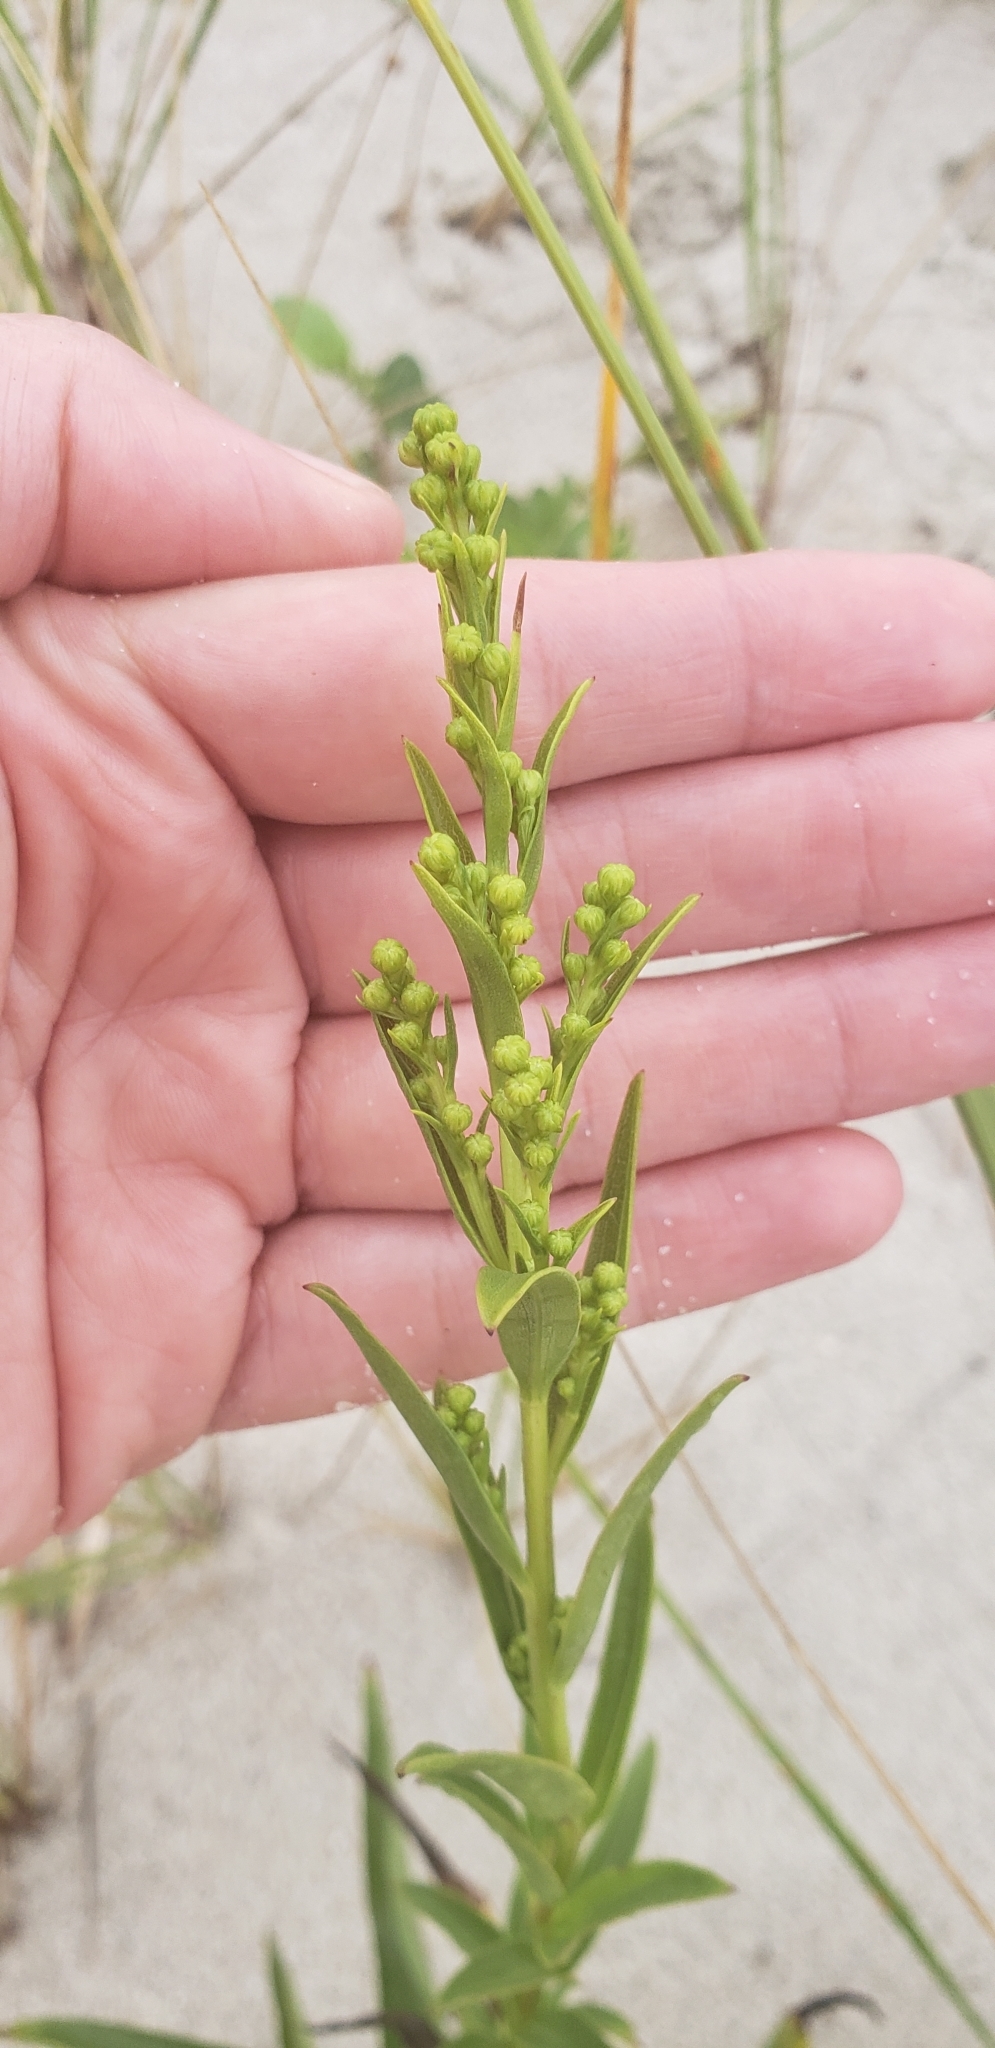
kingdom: Plantae
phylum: Tracheophyta
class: Magnoliopsida
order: Asterales
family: Asteraceae
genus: Solidago
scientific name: Solidago sempervirens
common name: Salt-marsh goldenrod
